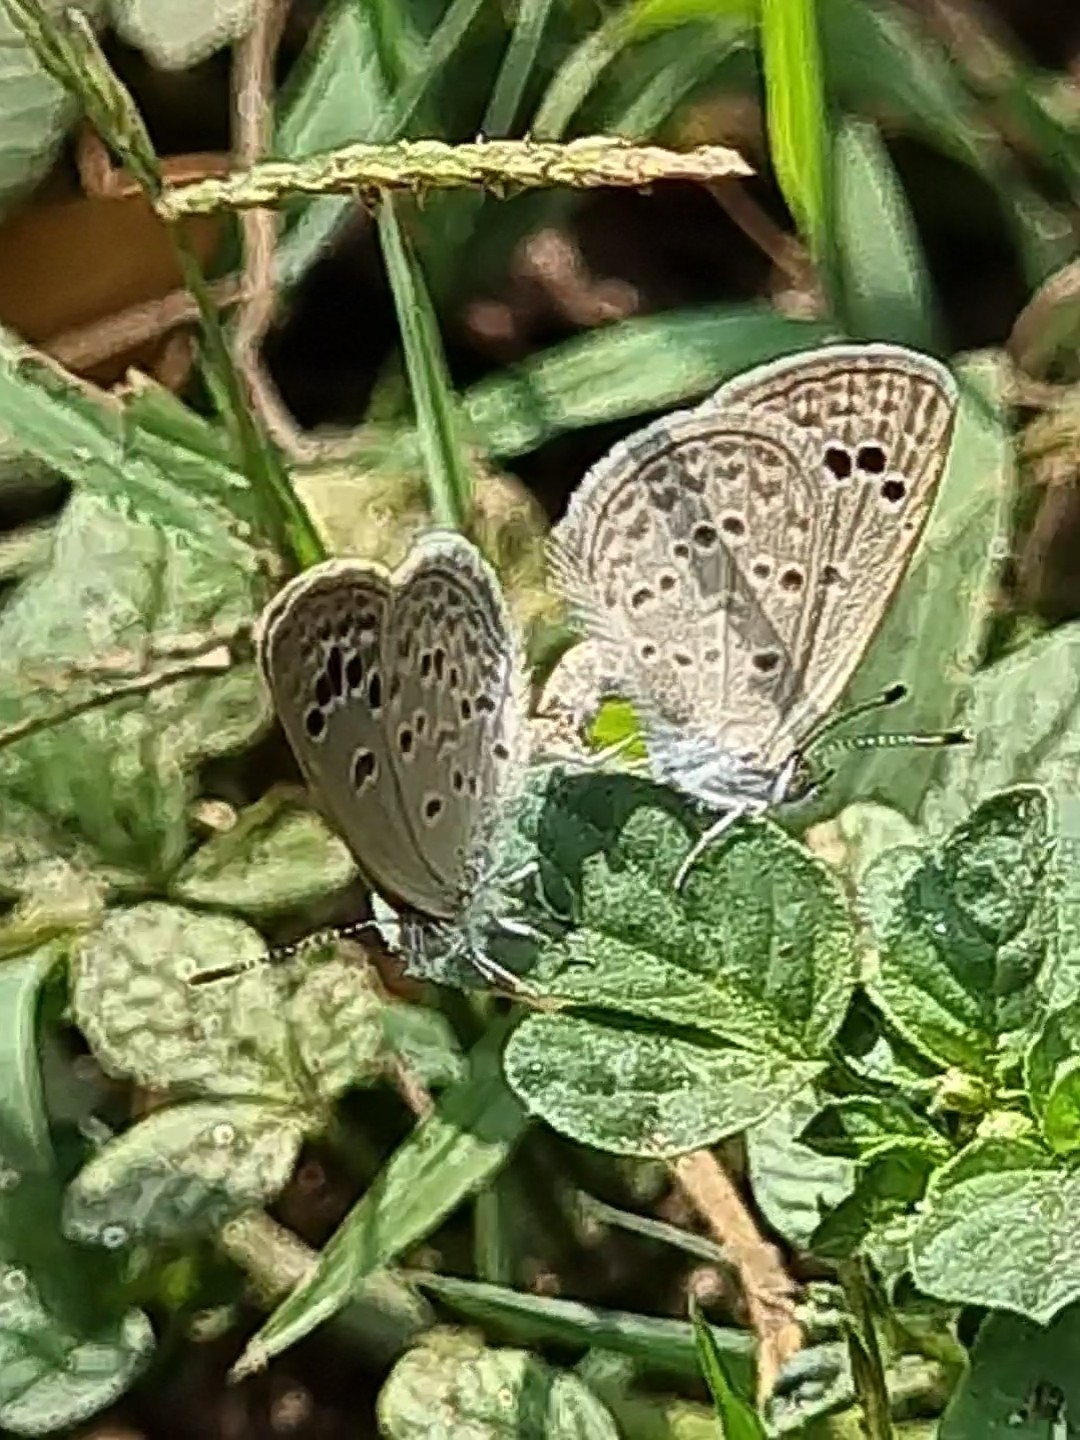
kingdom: Animalia
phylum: Arthropoda
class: Insecta
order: Lepidoptera
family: Lycaenidae
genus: Zizina
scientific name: Zizina otis
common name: Lesser grass blue
